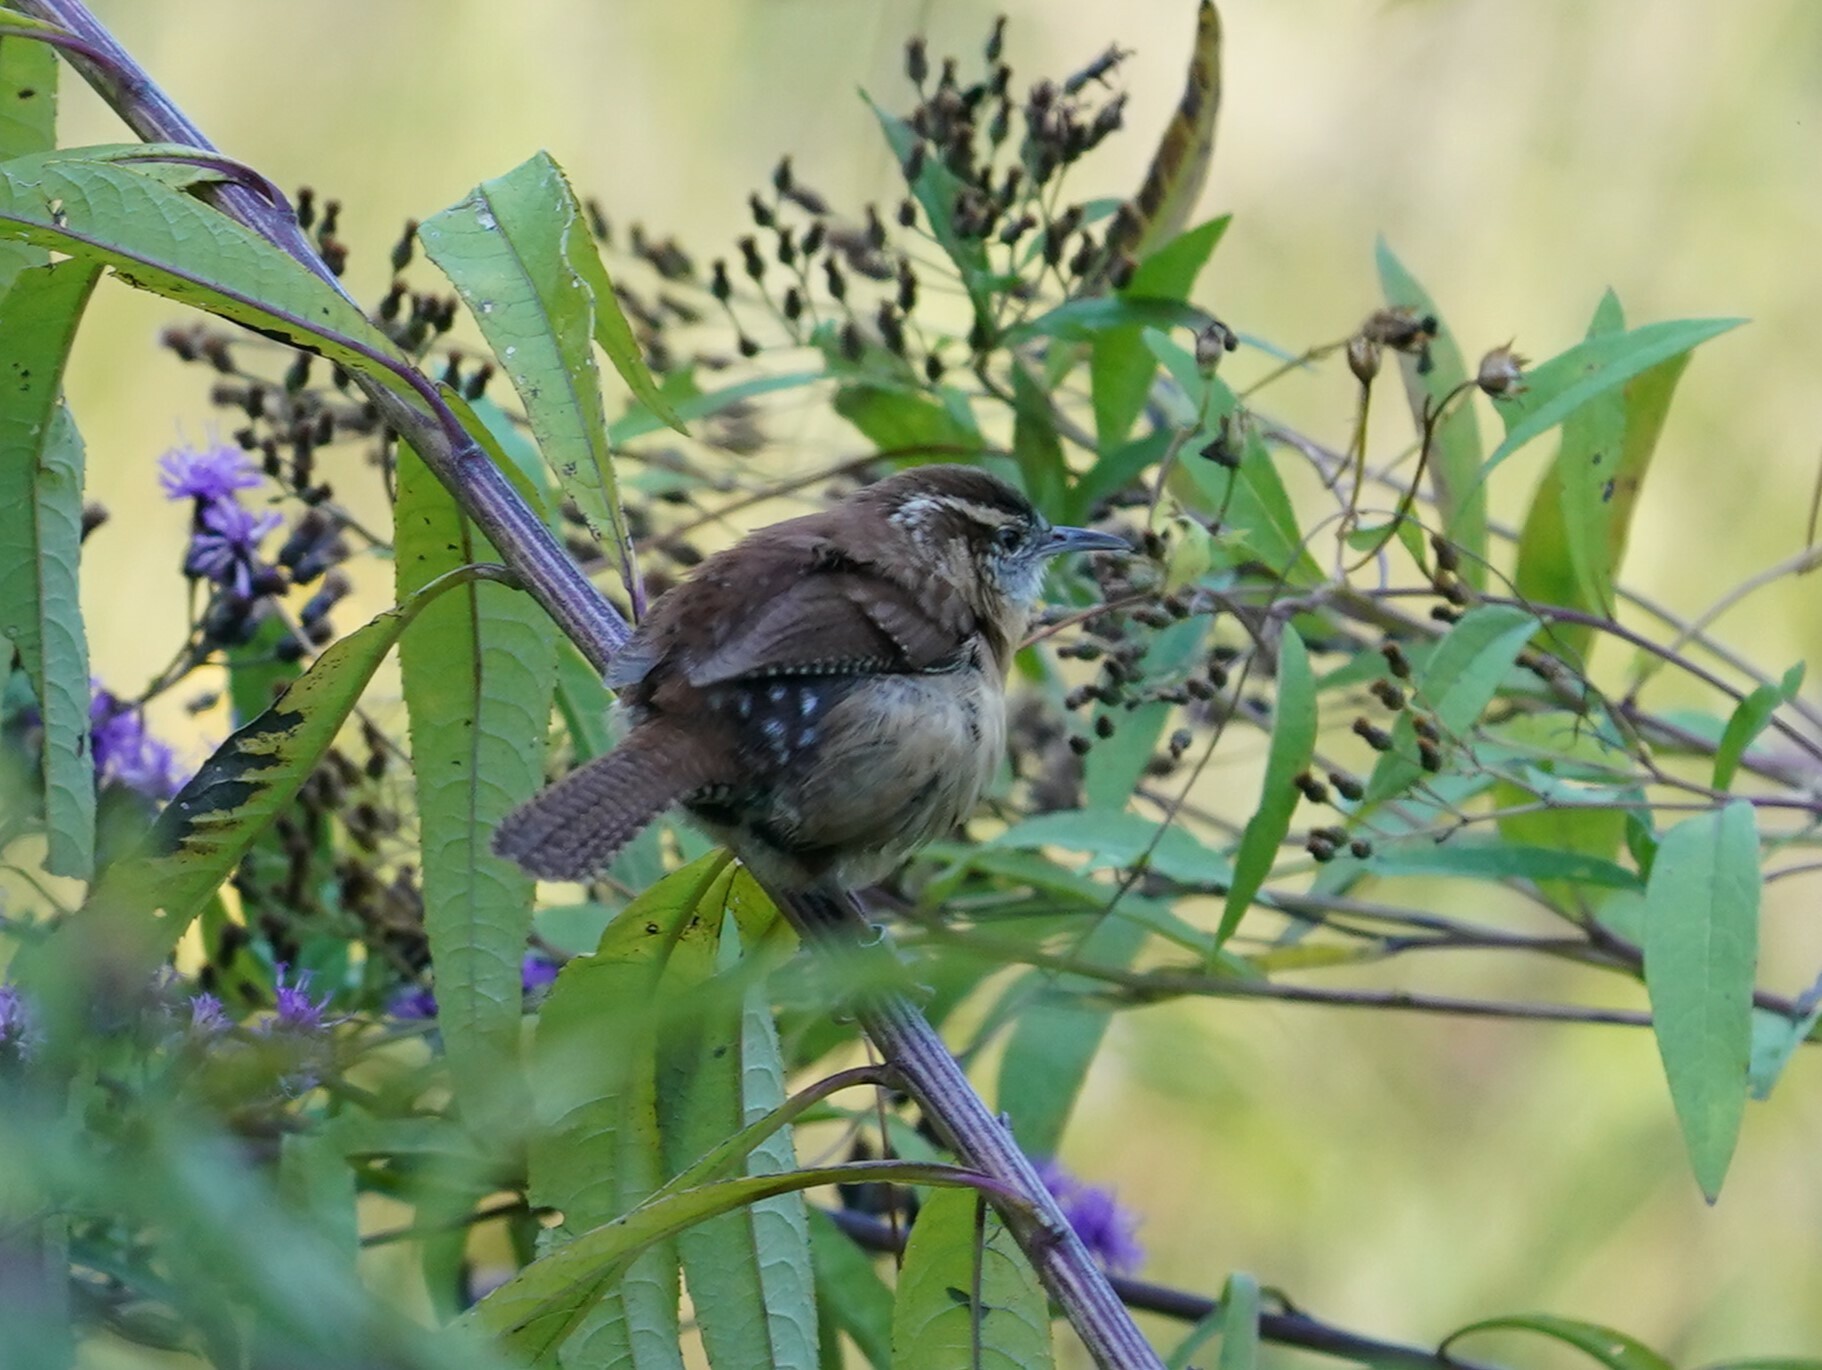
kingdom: Animalia
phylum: Chordata
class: Aves
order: Passeriformes
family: Troglodytidae
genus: Thryothorus
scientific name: Thryothorus ludovicianus
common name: Carolina wren
